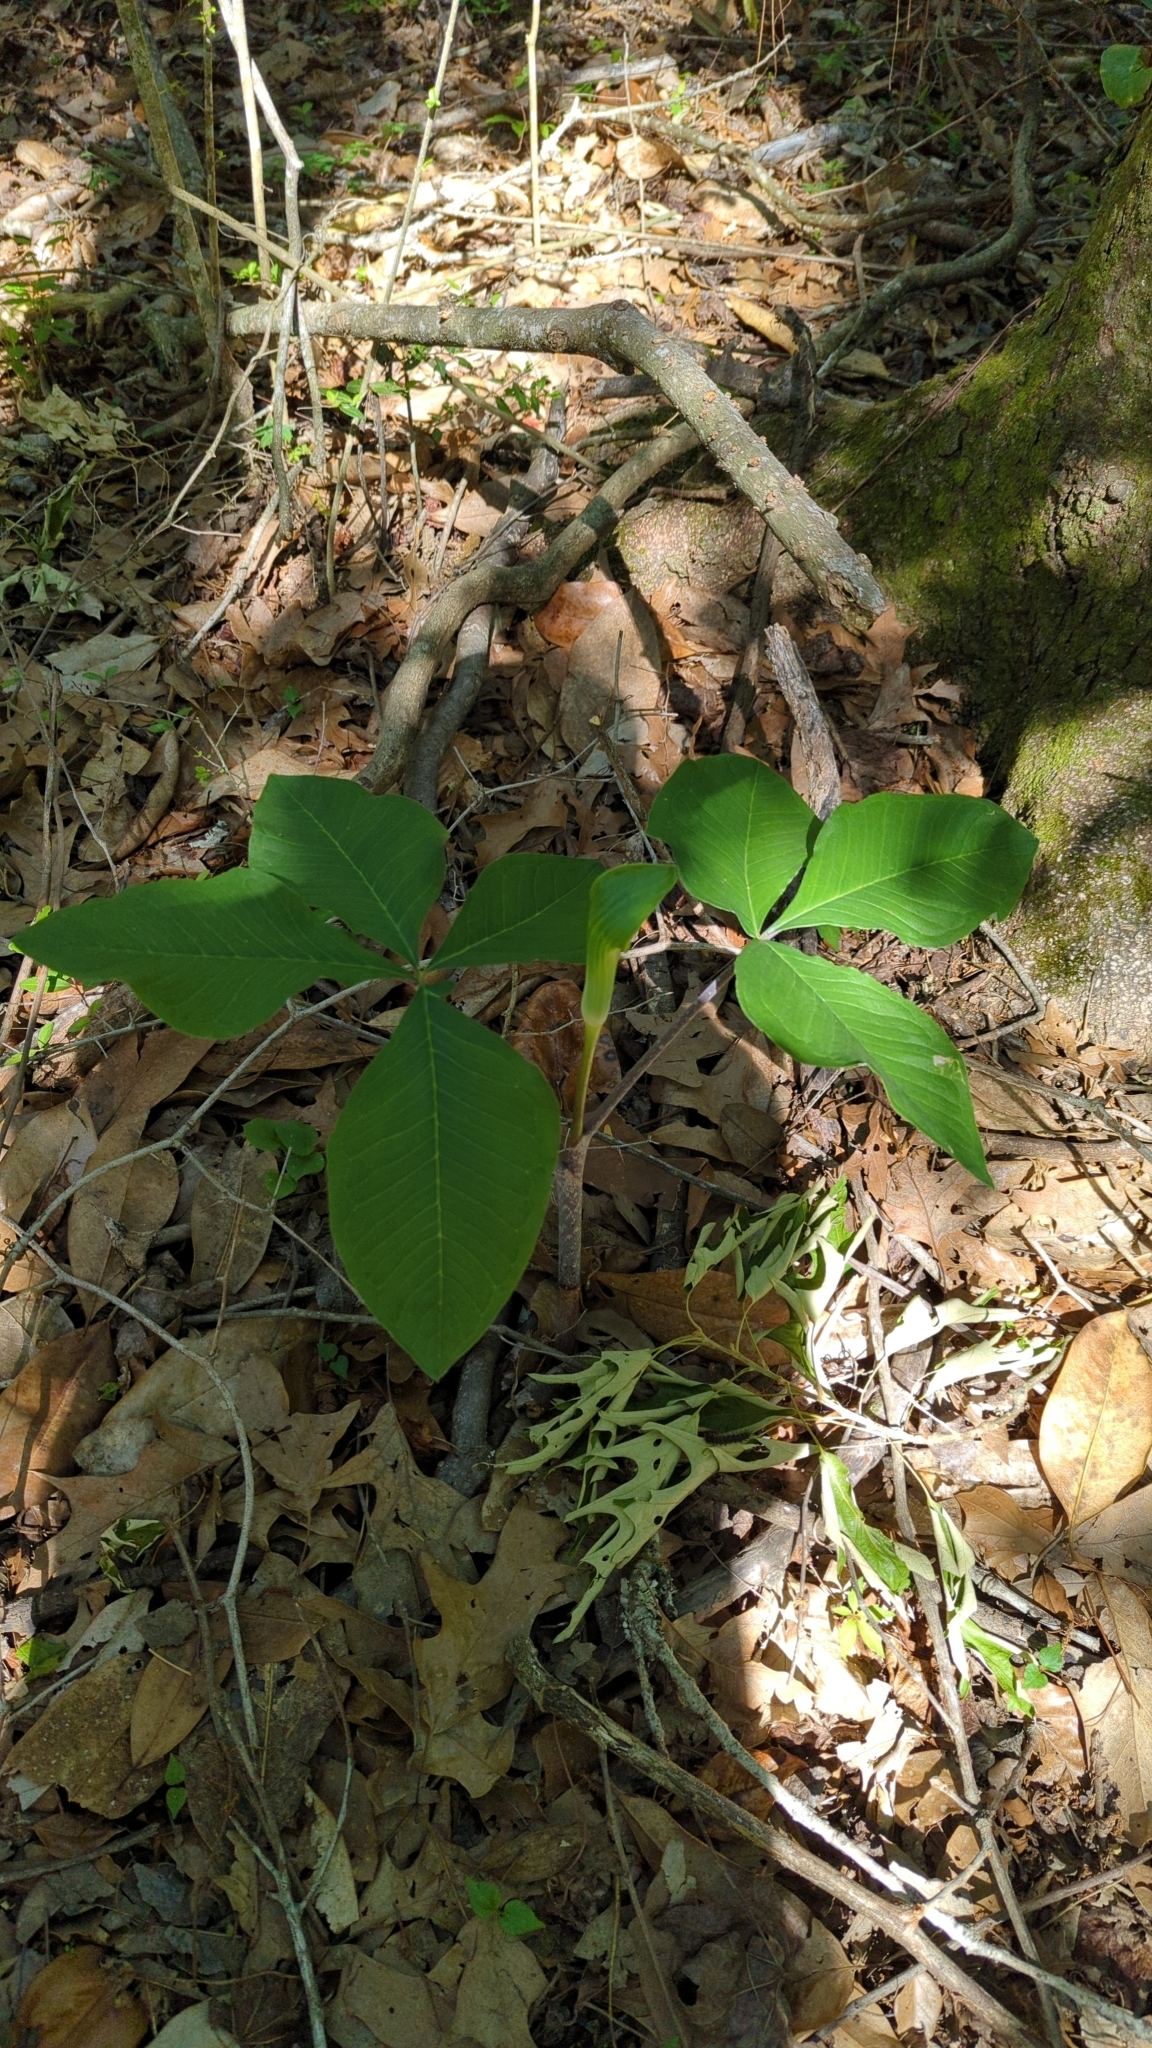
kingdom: Plantae
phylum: Tracheophyta
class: Liliopsida
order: Alismatales
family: Araceae
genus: Arisaema
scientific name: Arisaema quinatum
